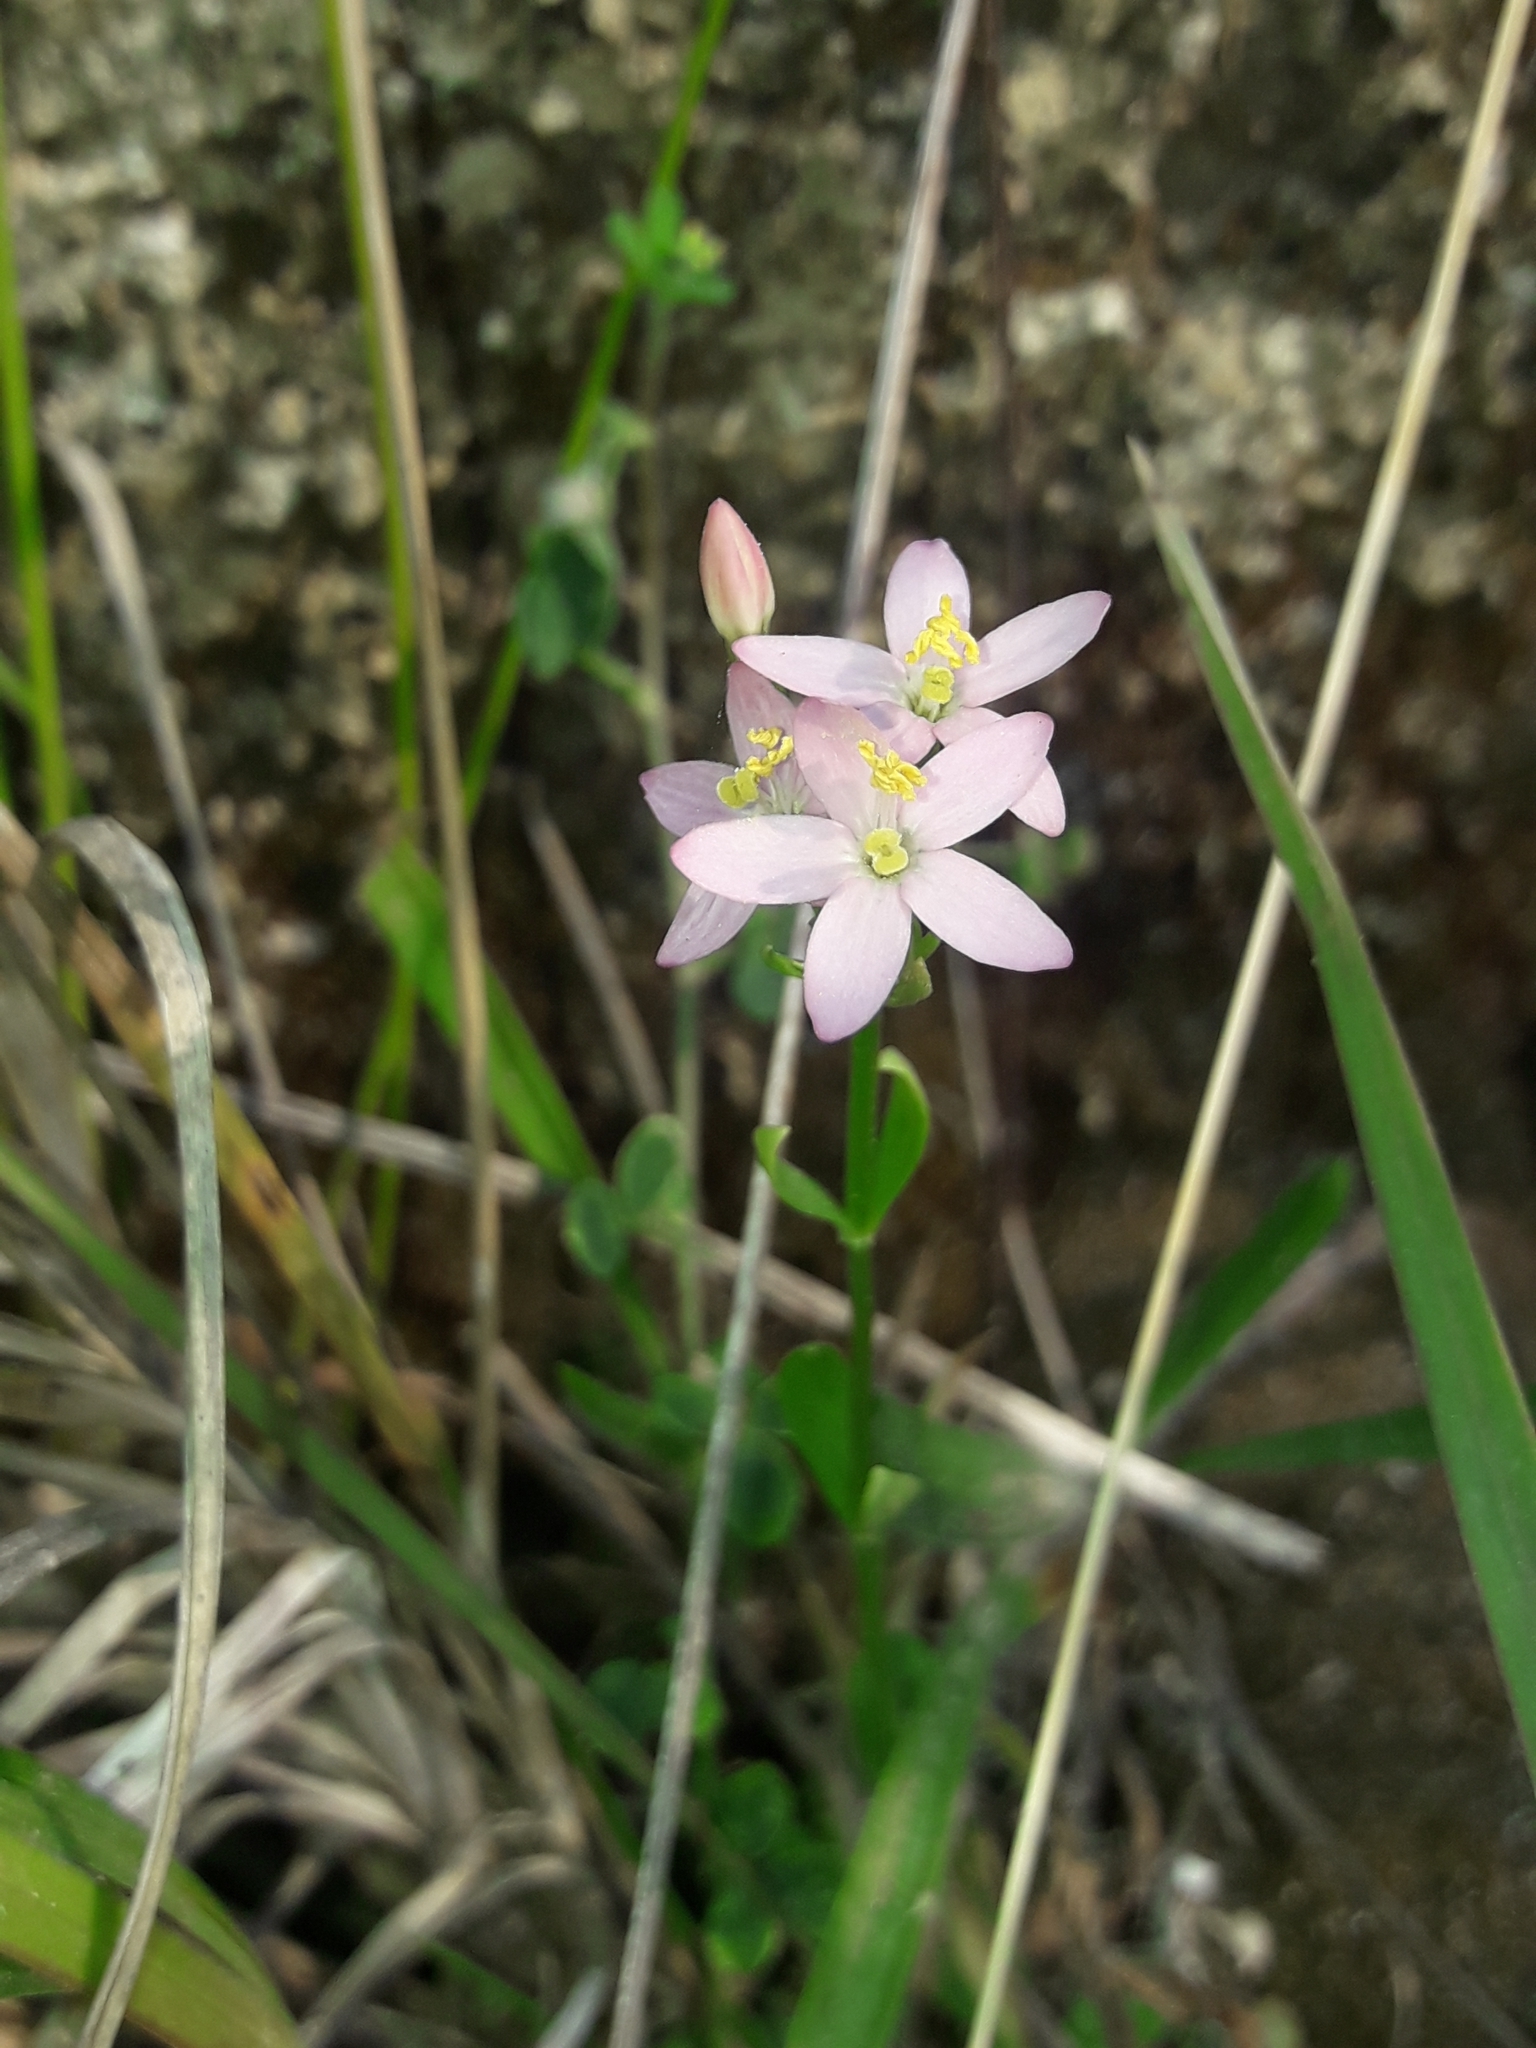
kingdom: Plantae
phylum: Tracheophyta
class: Magnoliopsida
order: Gentianales
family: Gentianaceae
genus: Centaurium
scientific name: Centaurium erythraea
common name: Common centaury
